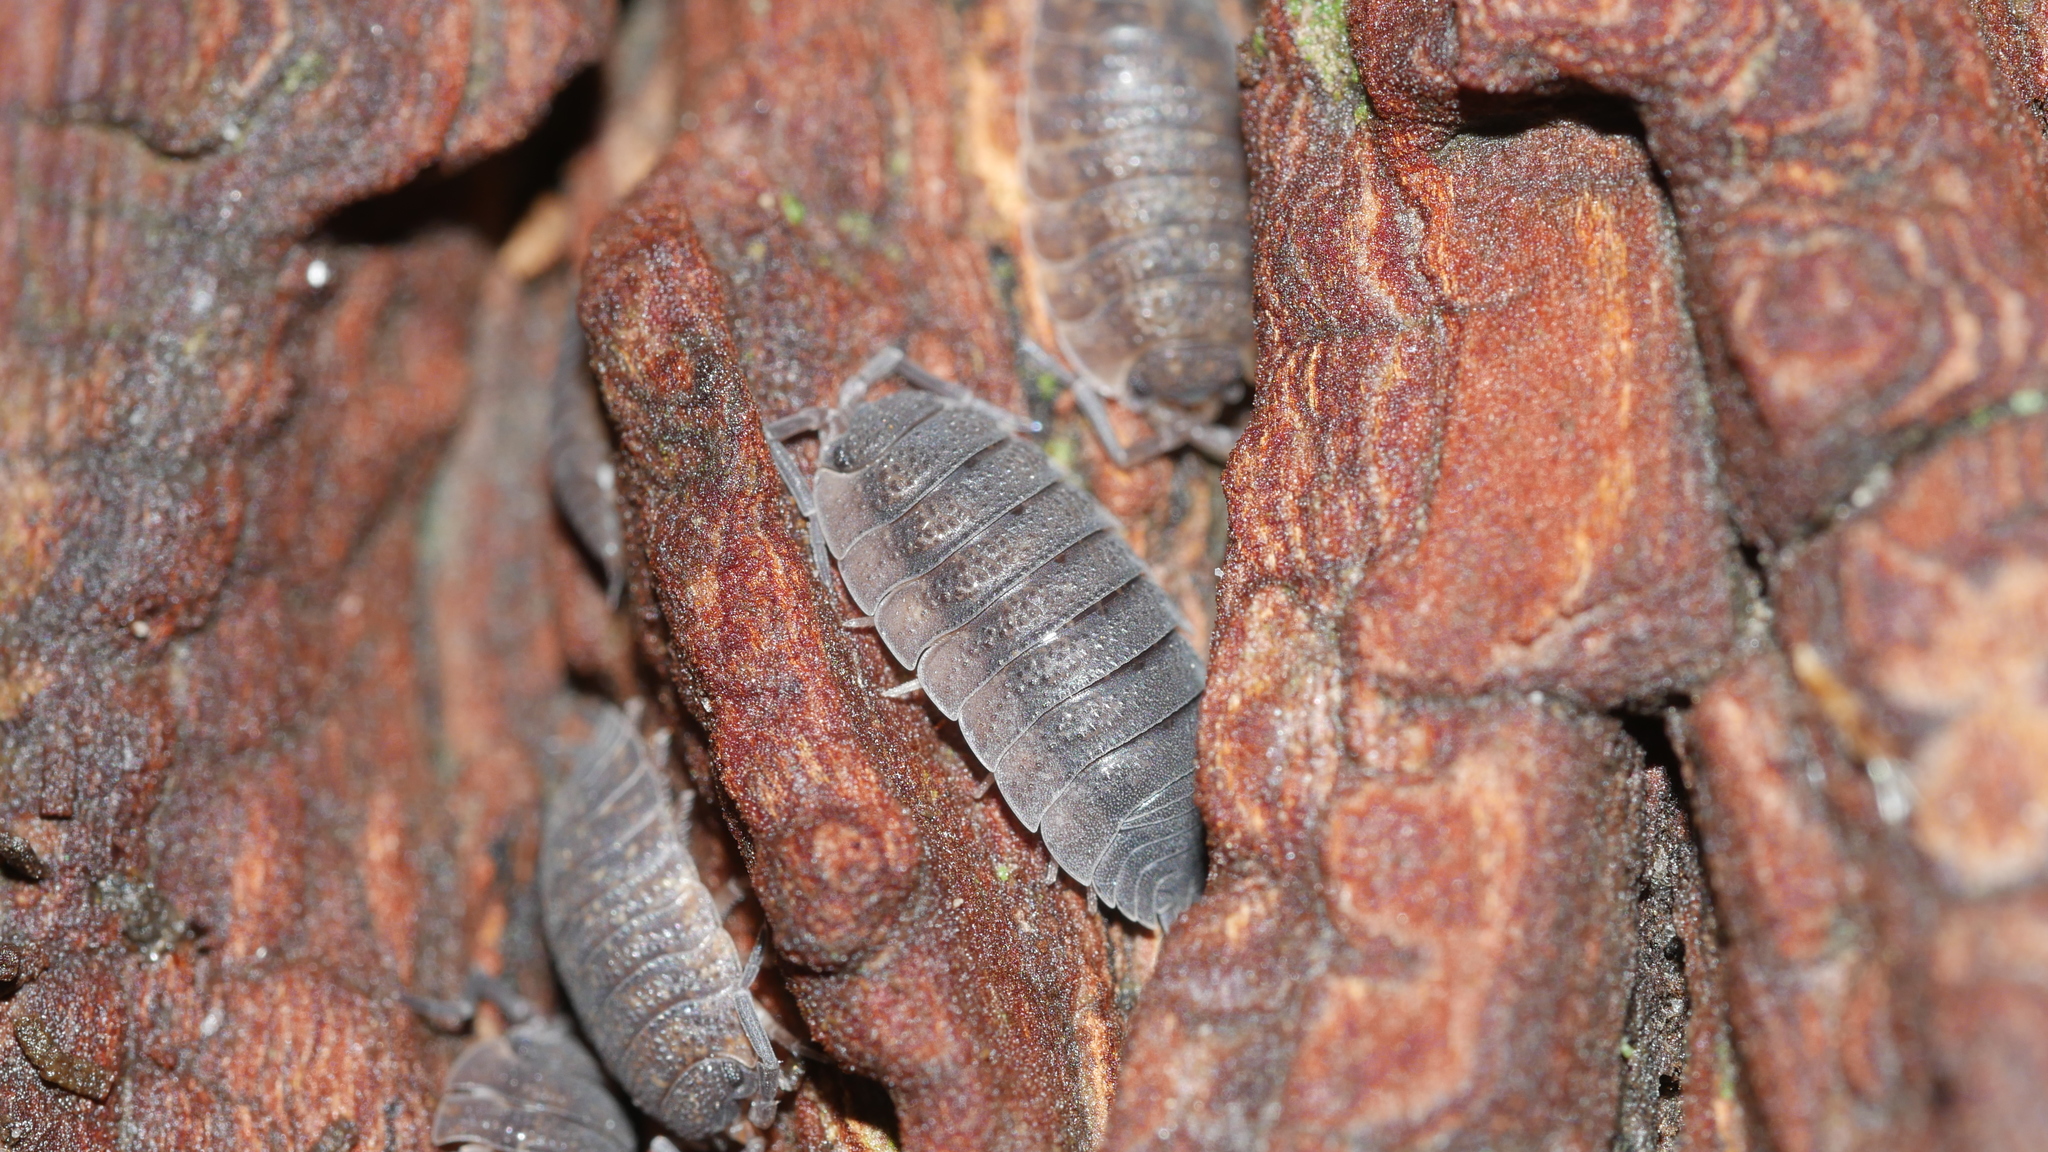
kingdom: Animalia
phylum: Arthropoda
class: Malacostraca
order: Isopoda
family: Porcellionidae
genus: Porcellio
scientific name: Porcellio scaber
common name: Common rough woodlouse
